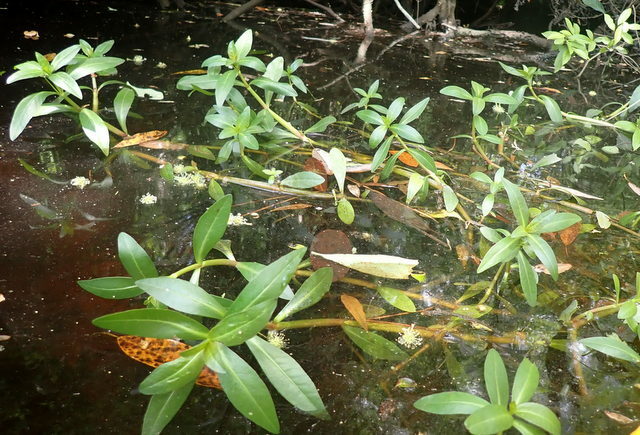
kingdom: Plantae
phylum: Tracheophyta
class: Magnoliopsida
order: Caryophyllales
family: Amaranthaceae
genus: Alternanthera
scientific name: Alternanthera philoxeroides
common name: Alligatorweed
